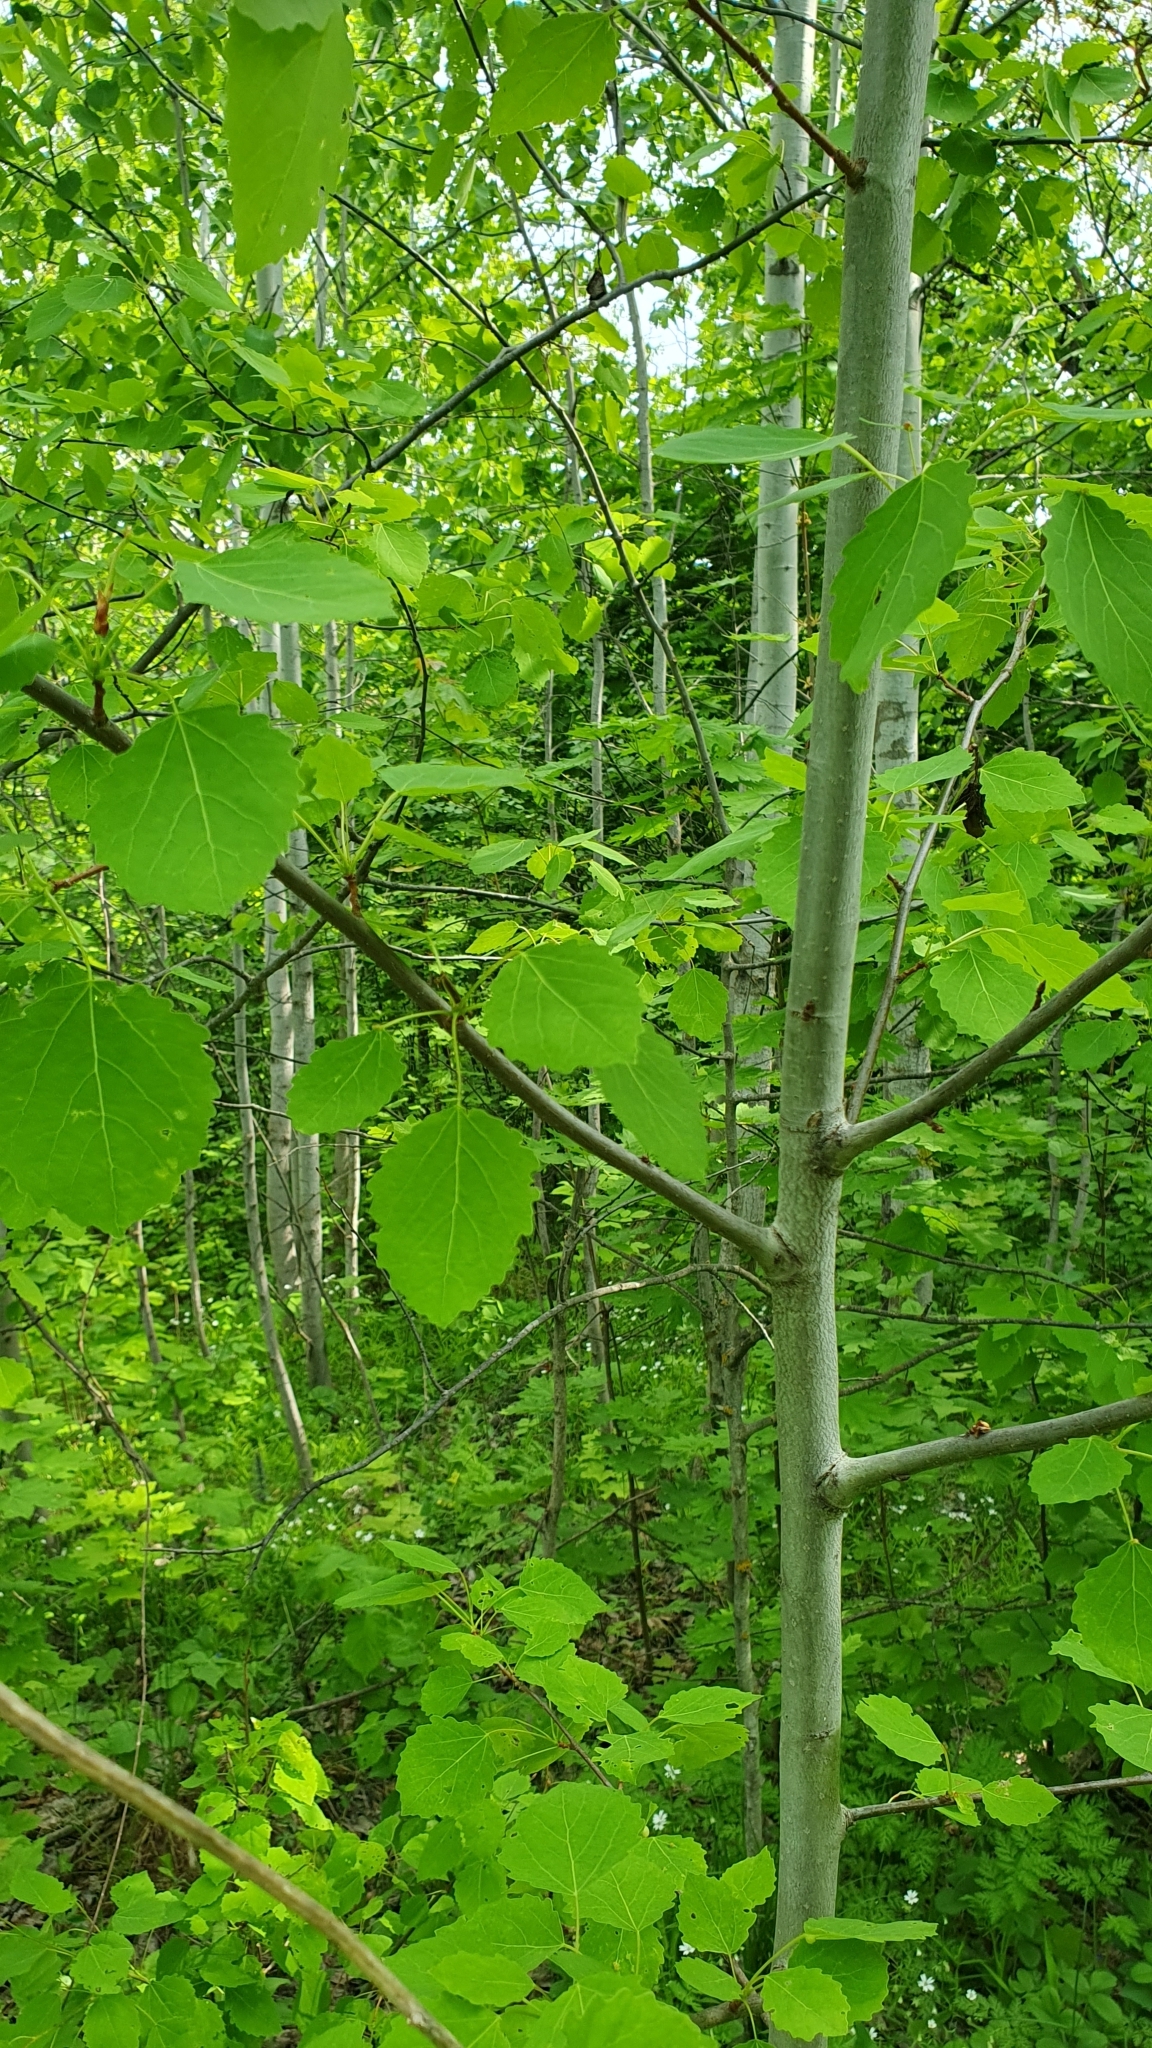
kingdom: Plantae
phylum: Tracheophyta
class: Magnoliopsida
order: Malpighiales
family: Salicaceae
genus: Populus
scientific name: Populus tremula
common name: European aspen
